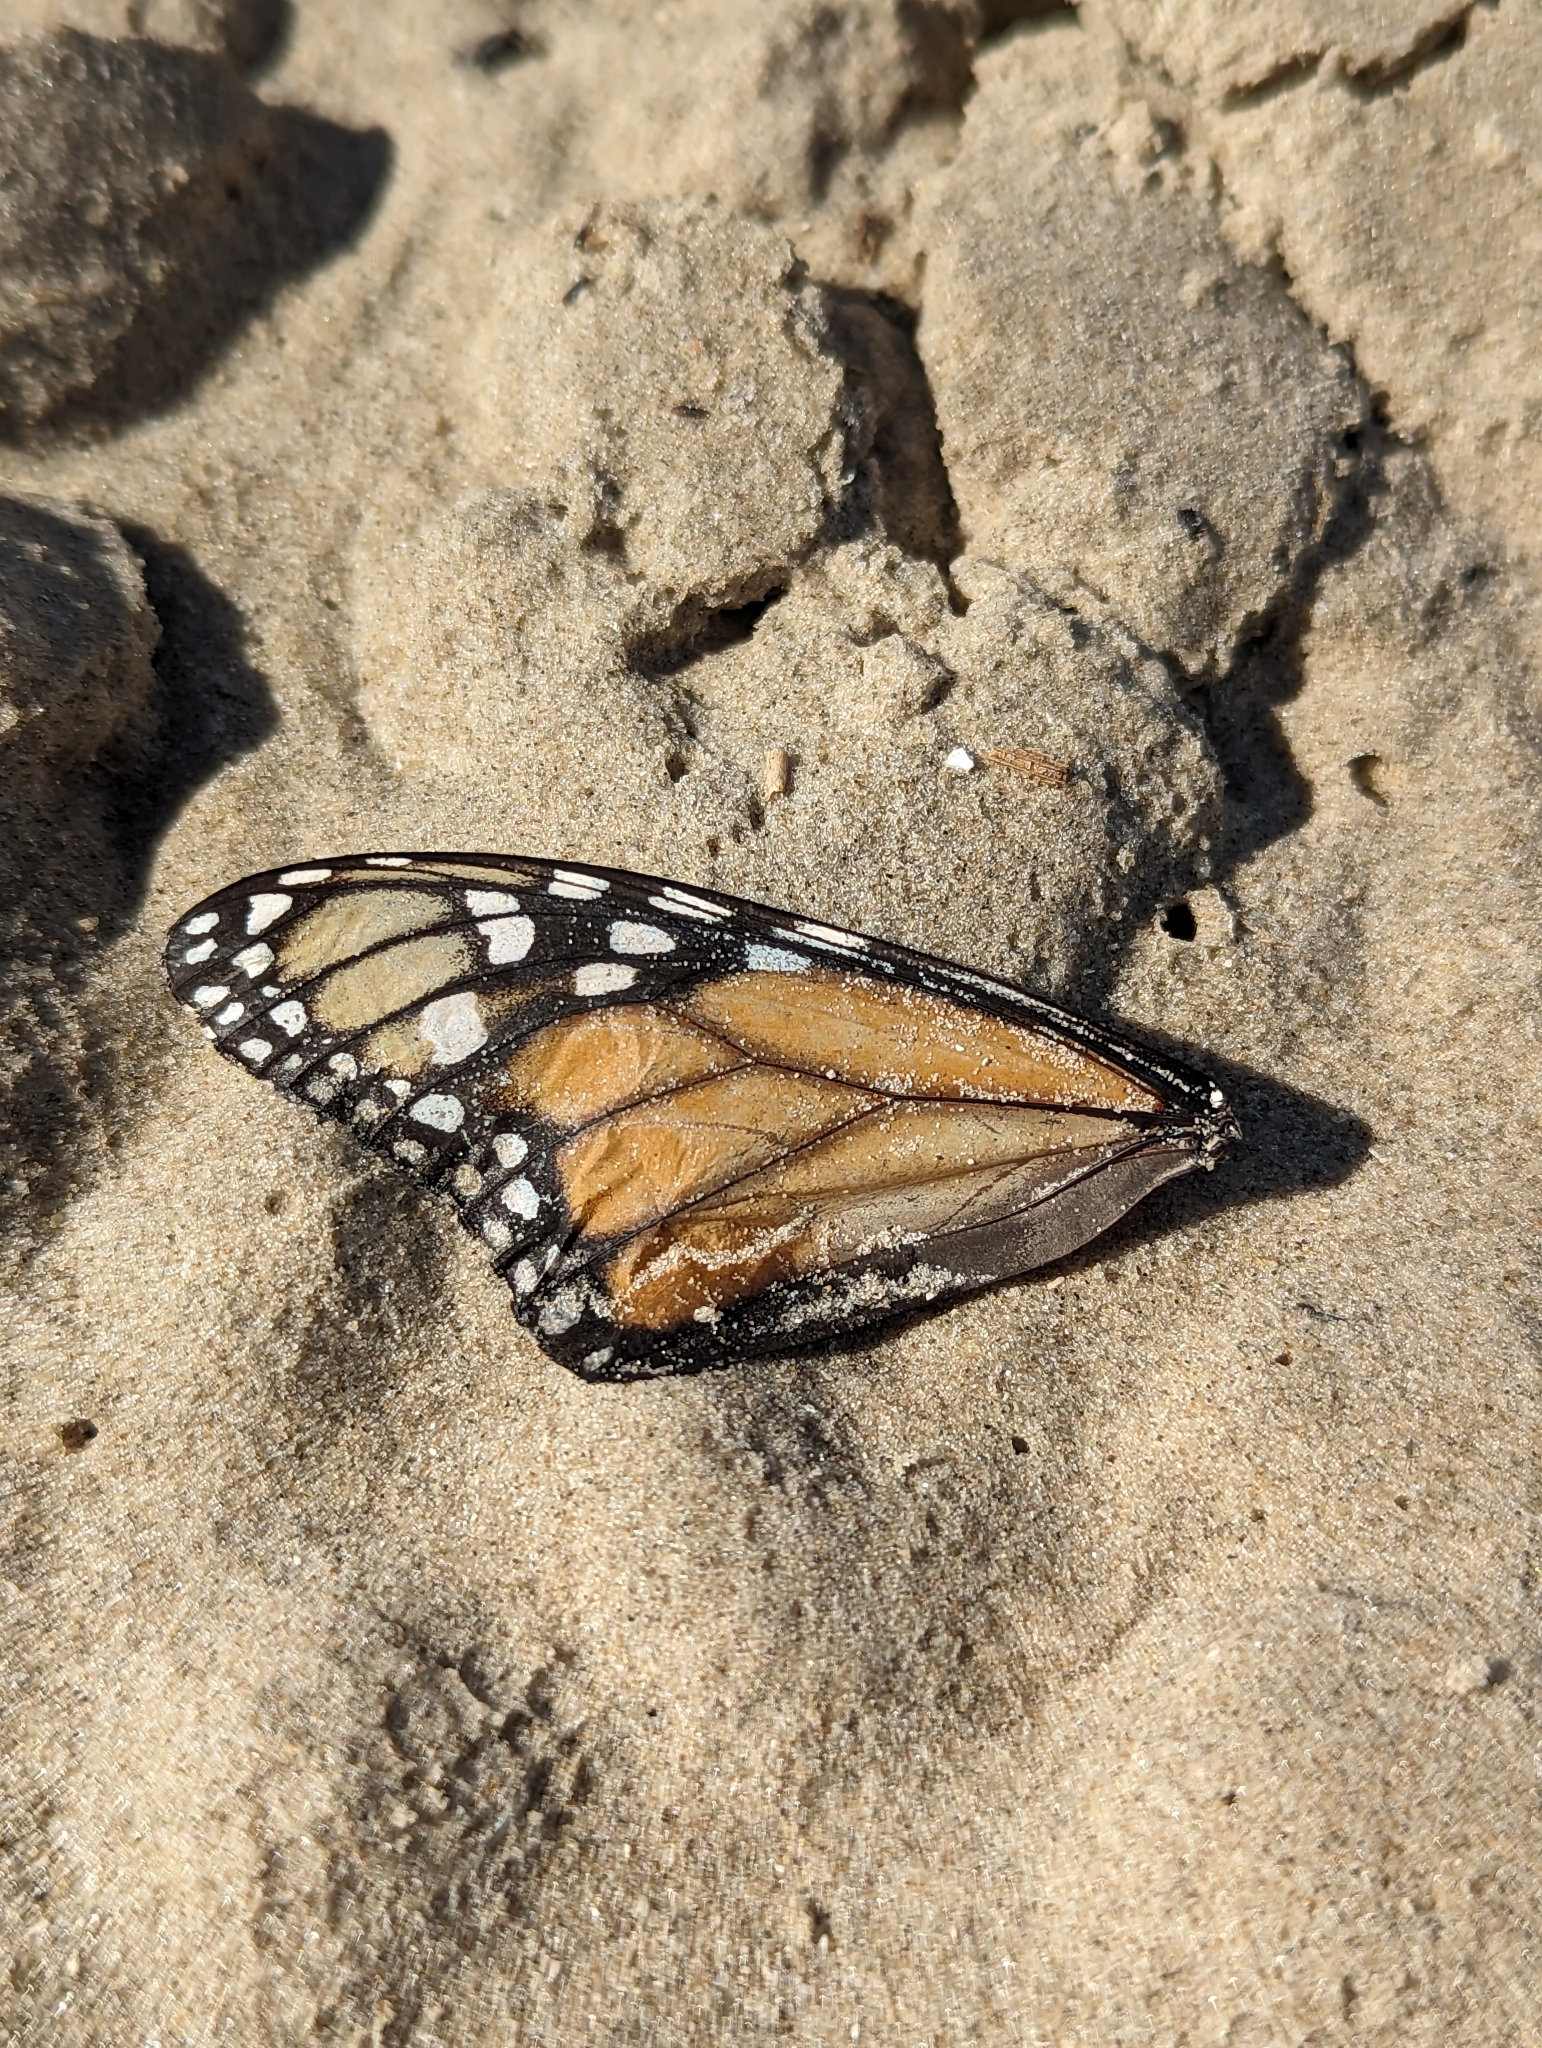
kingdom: Animalia
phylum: Arthropoda
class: Insecta
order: Lepidoptera
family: Nymphalidae
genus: Danaus
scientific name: Danaus plexippus
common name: Monarch
